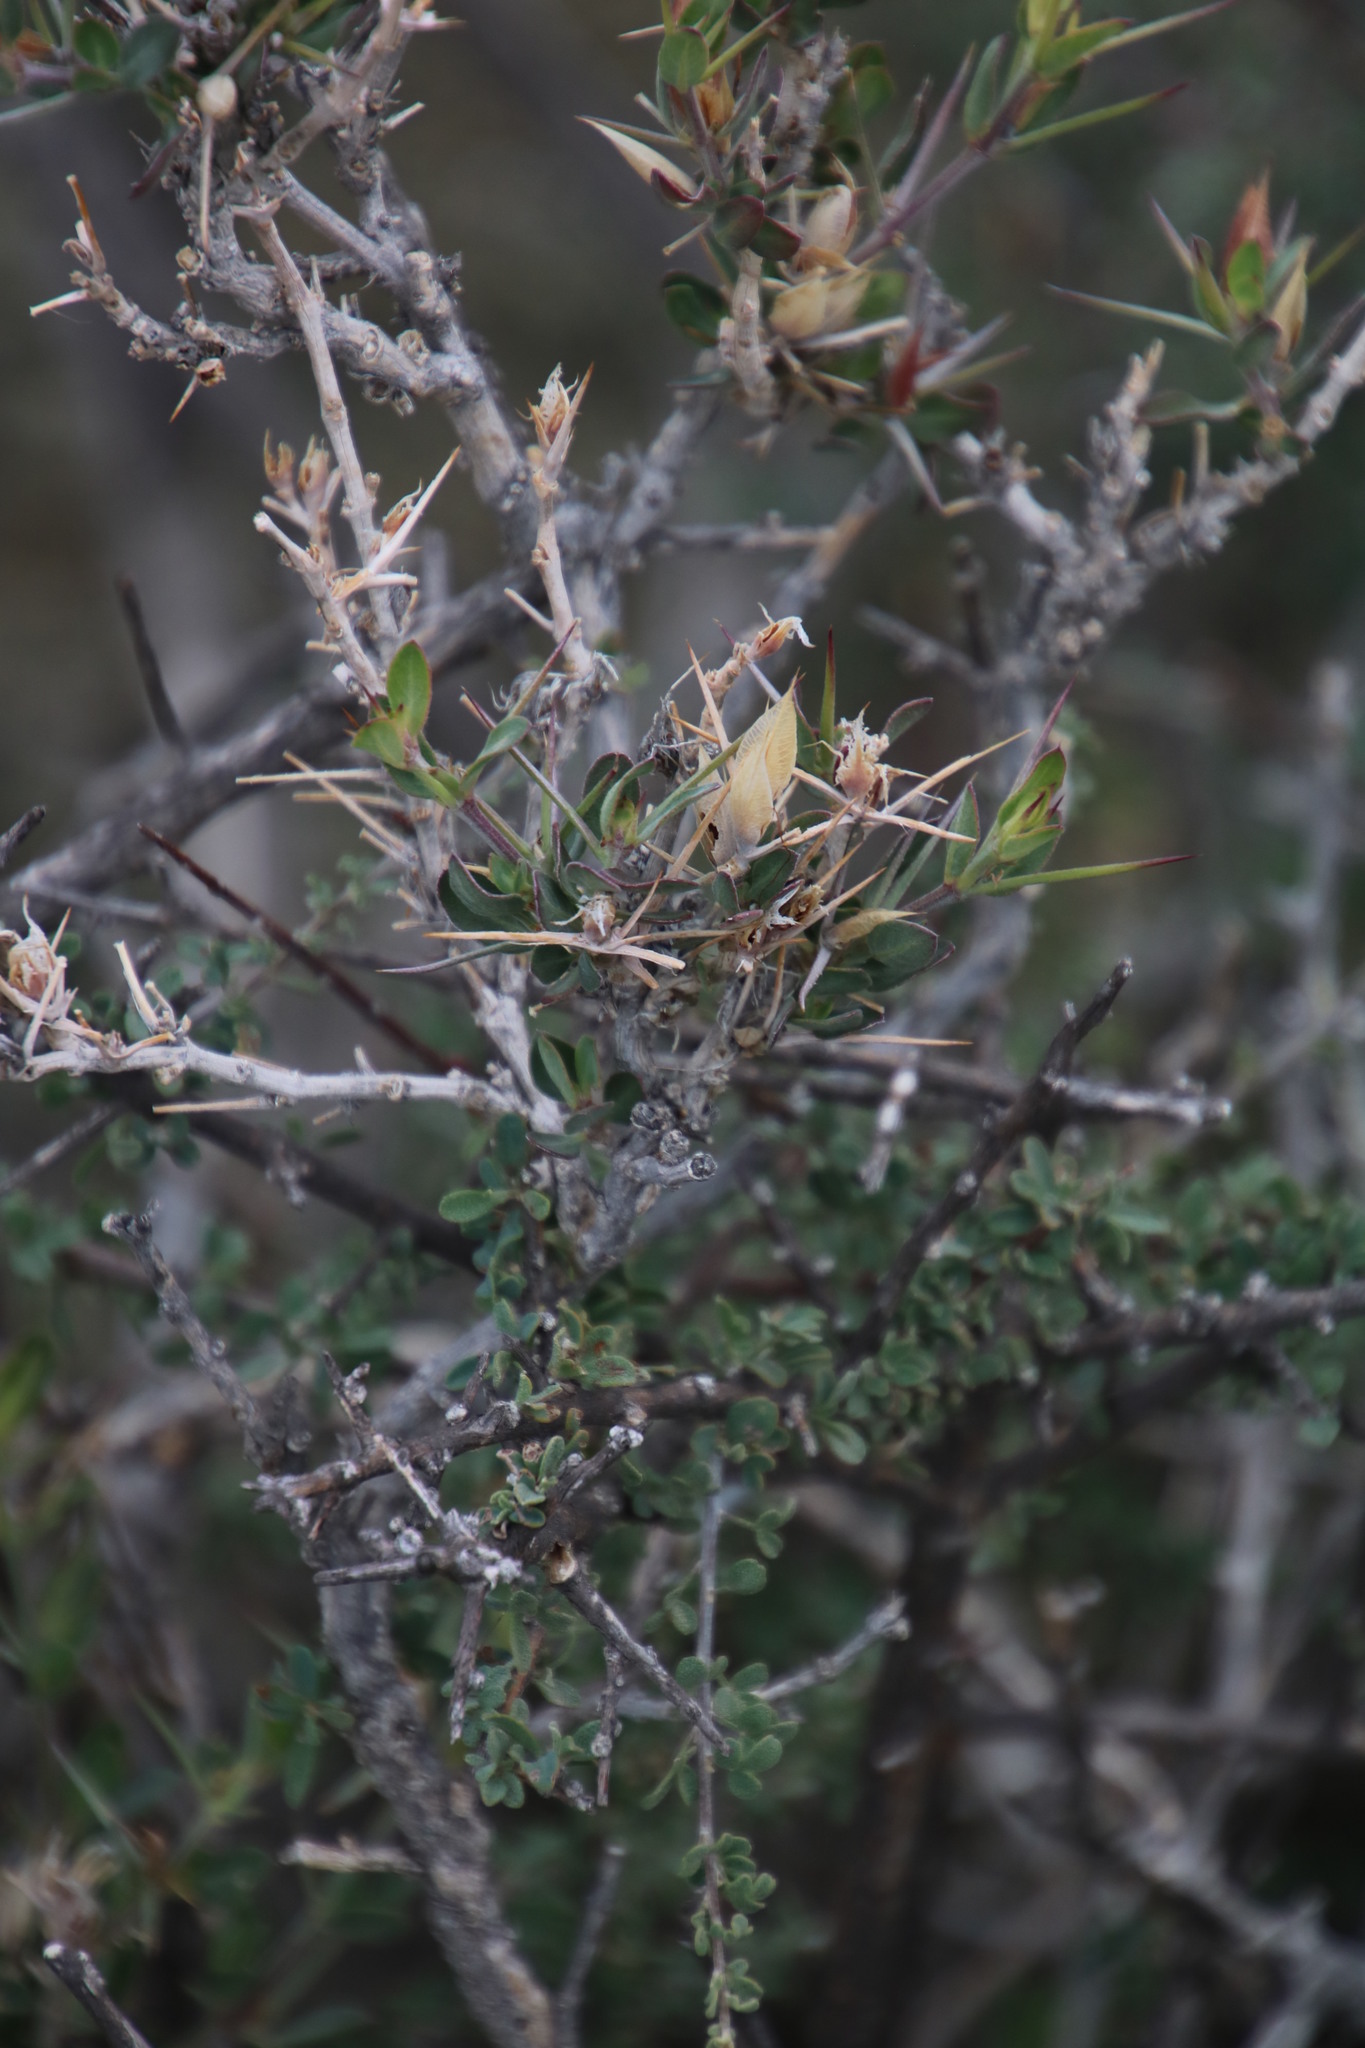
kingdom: Plantae
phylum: Tracheophyta
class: Magnoliopsida
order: Lamiales
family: Acanthaceae
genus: Barleria
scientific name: Barleria stimulans
